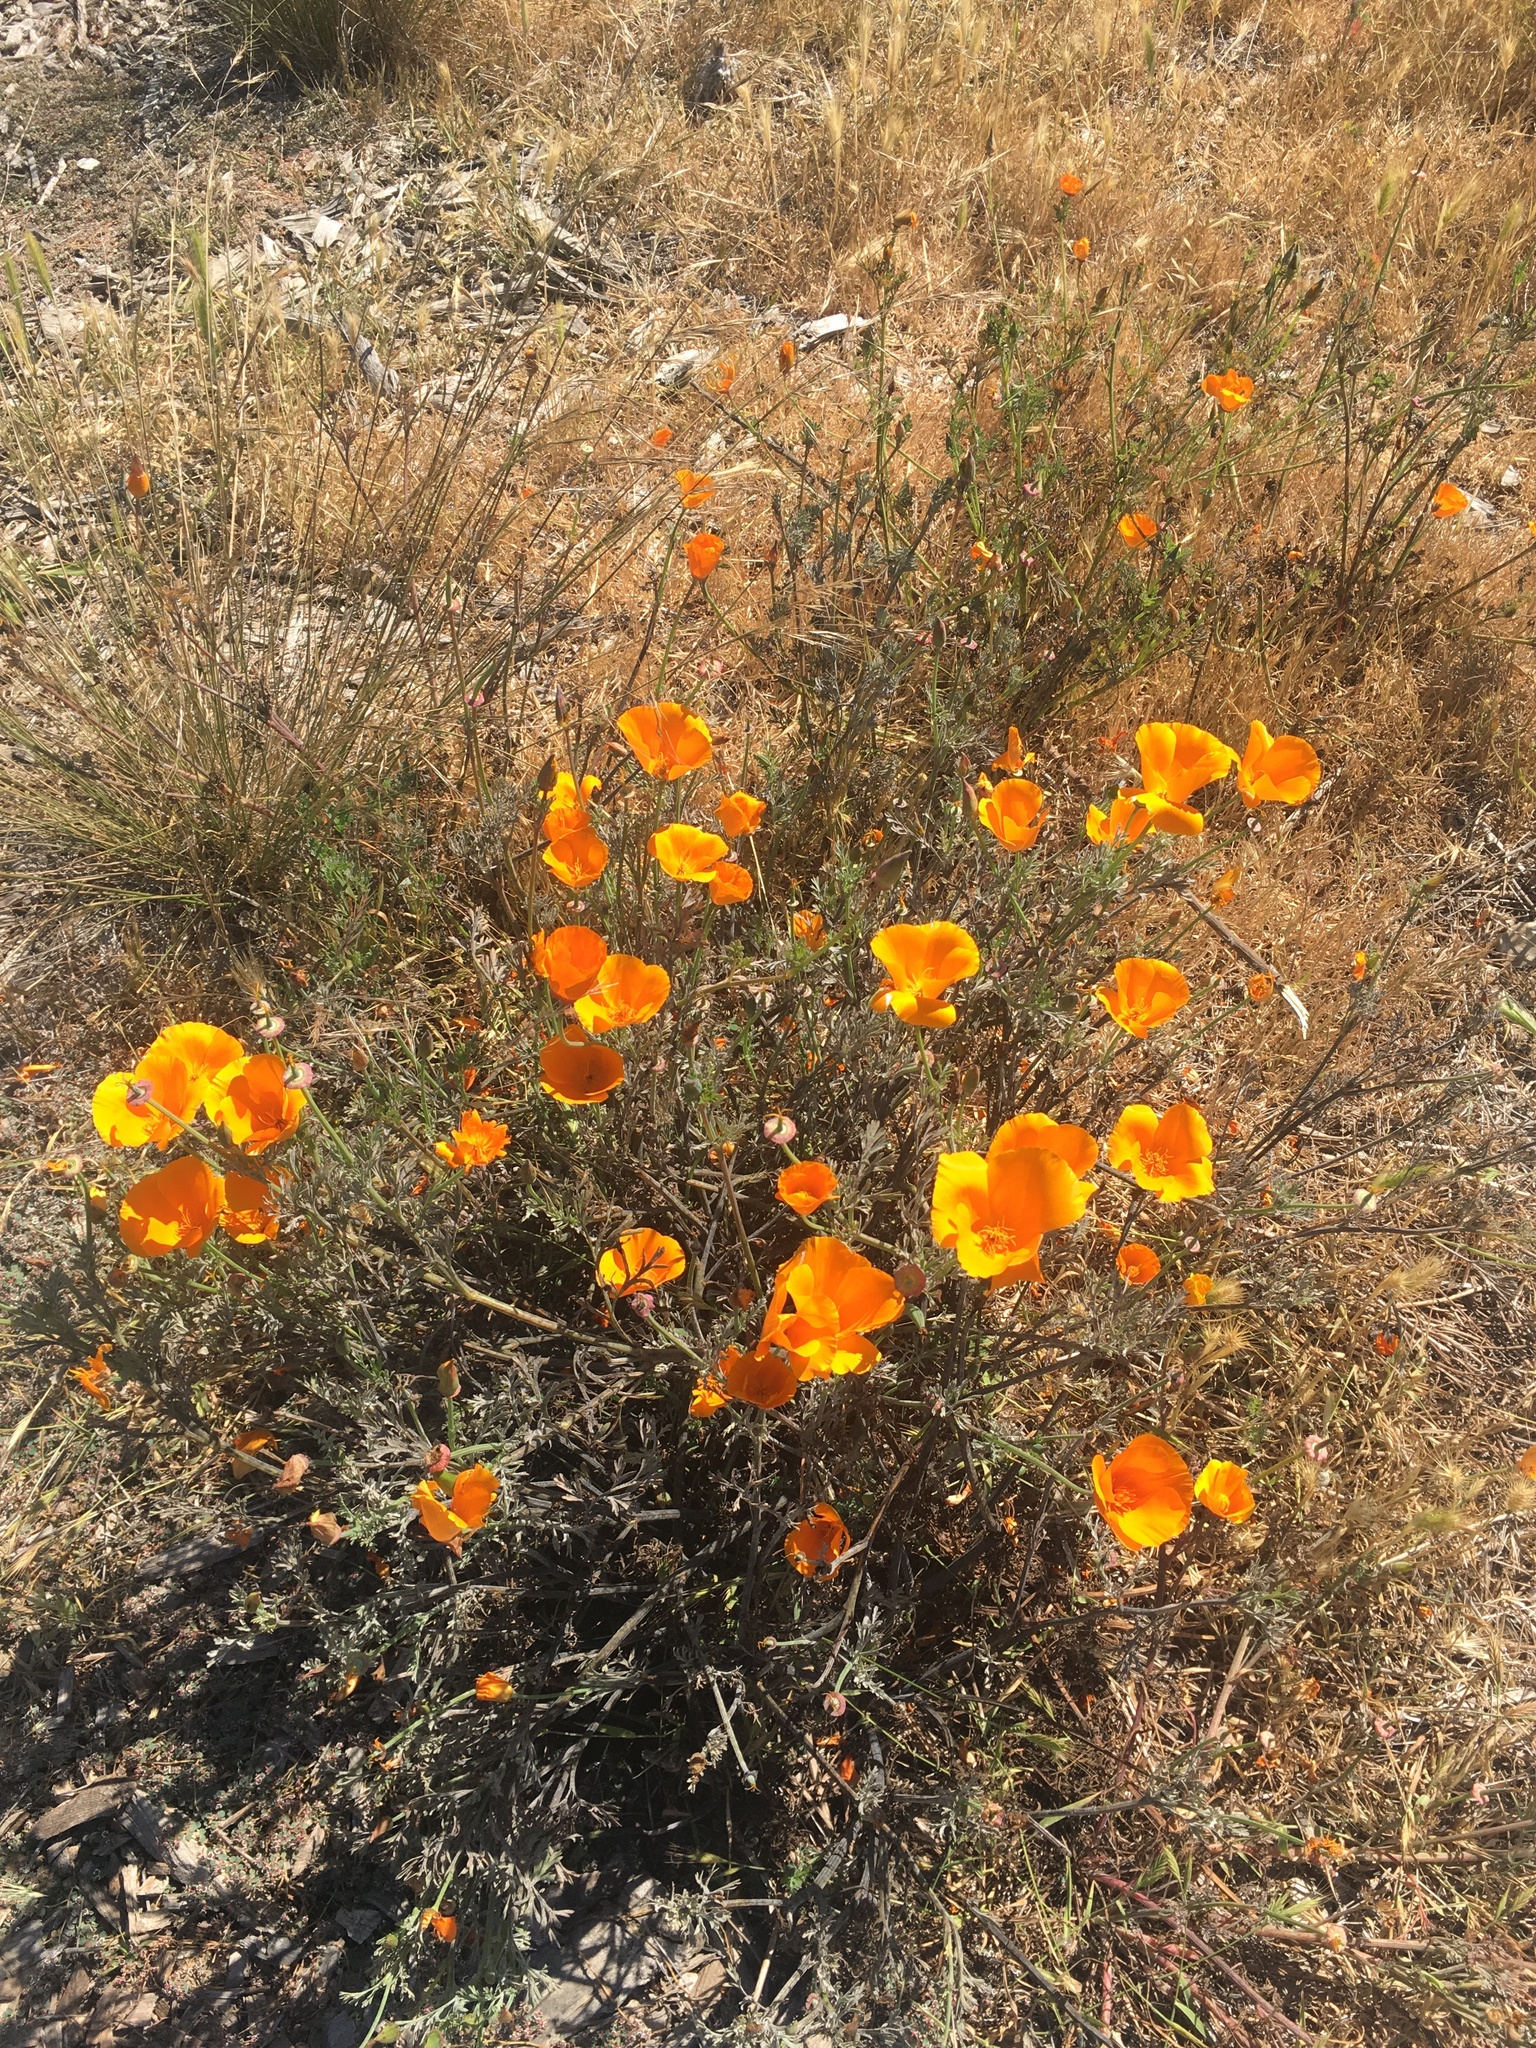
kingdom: Plantae
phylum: Tracheophyta
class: Magnoliopsida
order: Ranunculales
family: Papaveraceae
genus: Eschscholzia
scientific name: Eschscholzia californica
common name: California poppy
